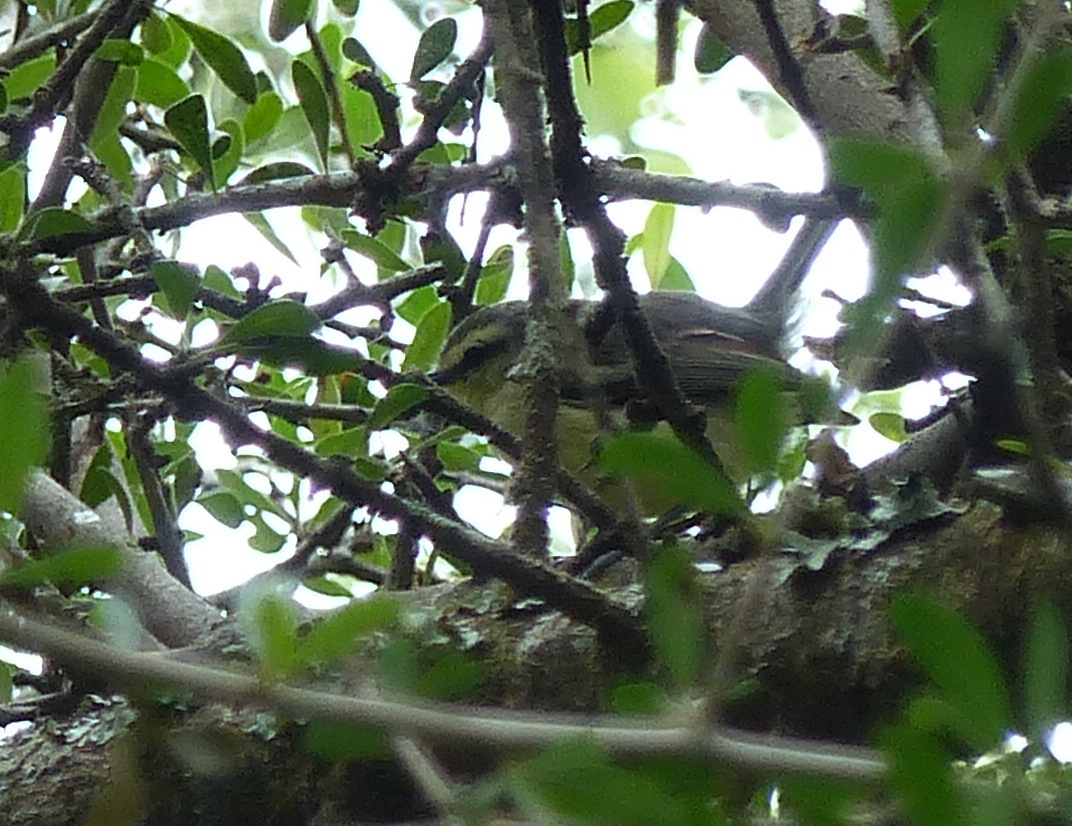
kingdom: Animalia
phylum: Chordata
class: Aves
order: Passeriformes
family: Parulidae
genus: Basileuterus
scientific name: Basileuterus culicivorus
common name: Golden-crowned warbler
